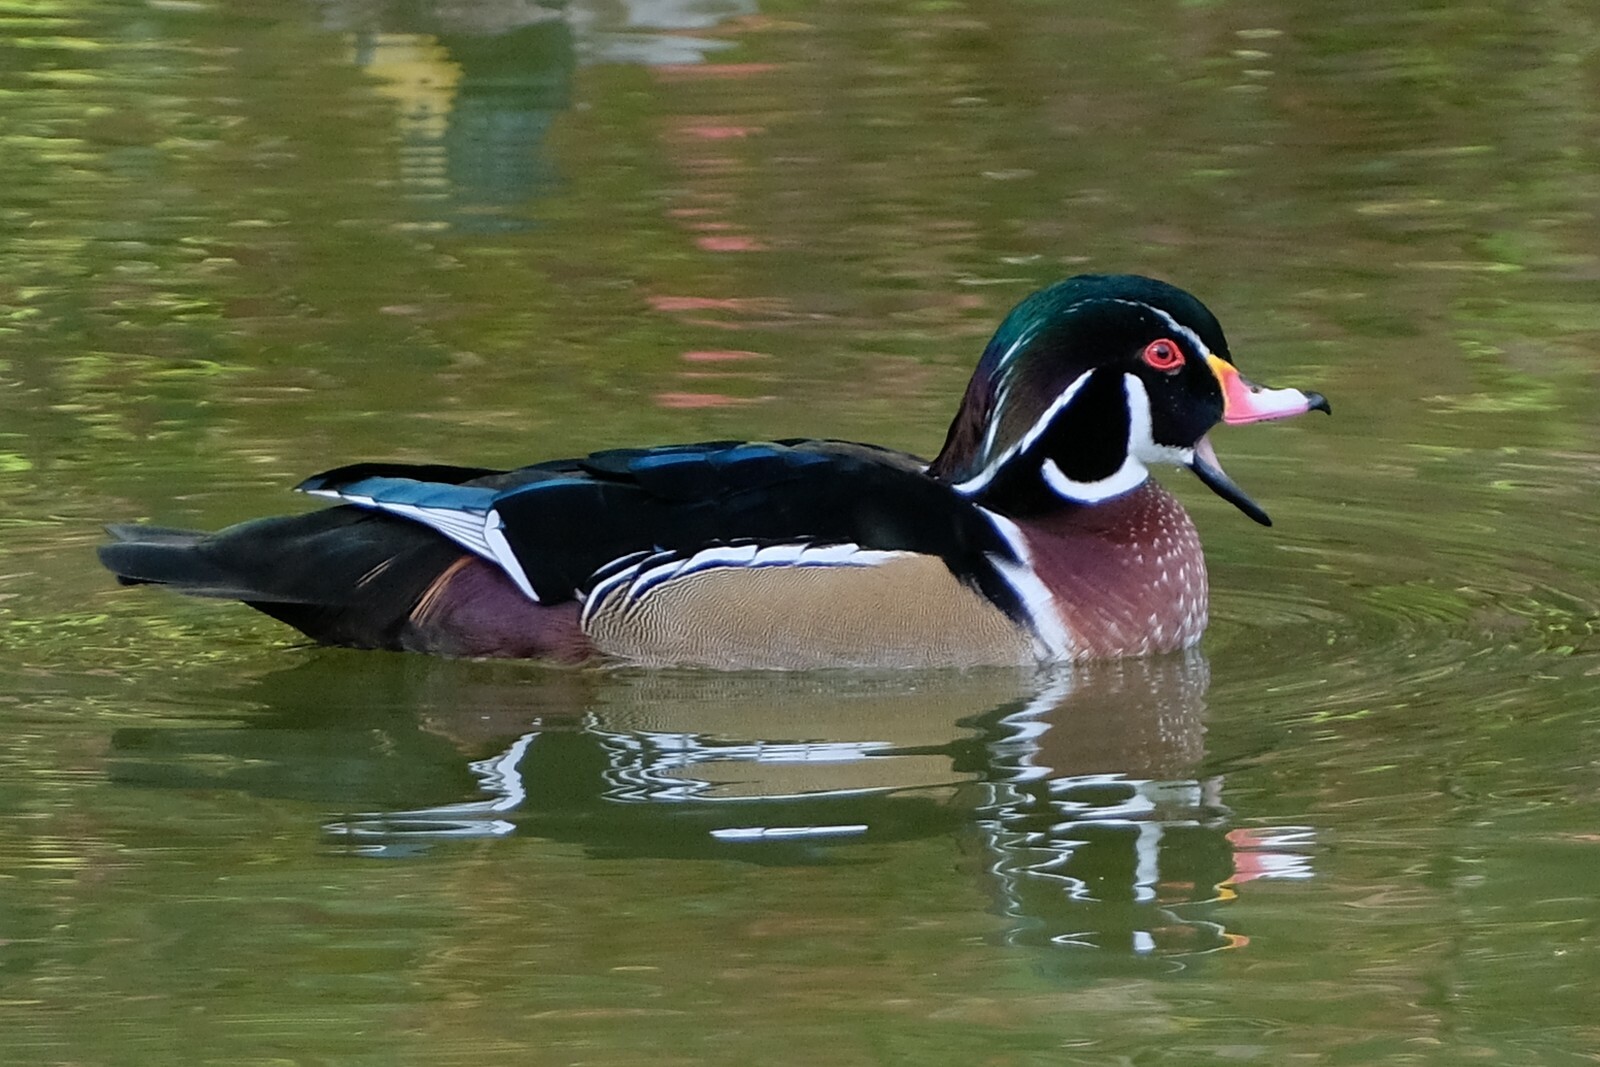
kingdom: Animalia
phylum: Chordata
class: Aves
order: Anseriformes
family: Anatidae
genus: Aix
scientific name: Aix sponsa
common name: Wood duck
